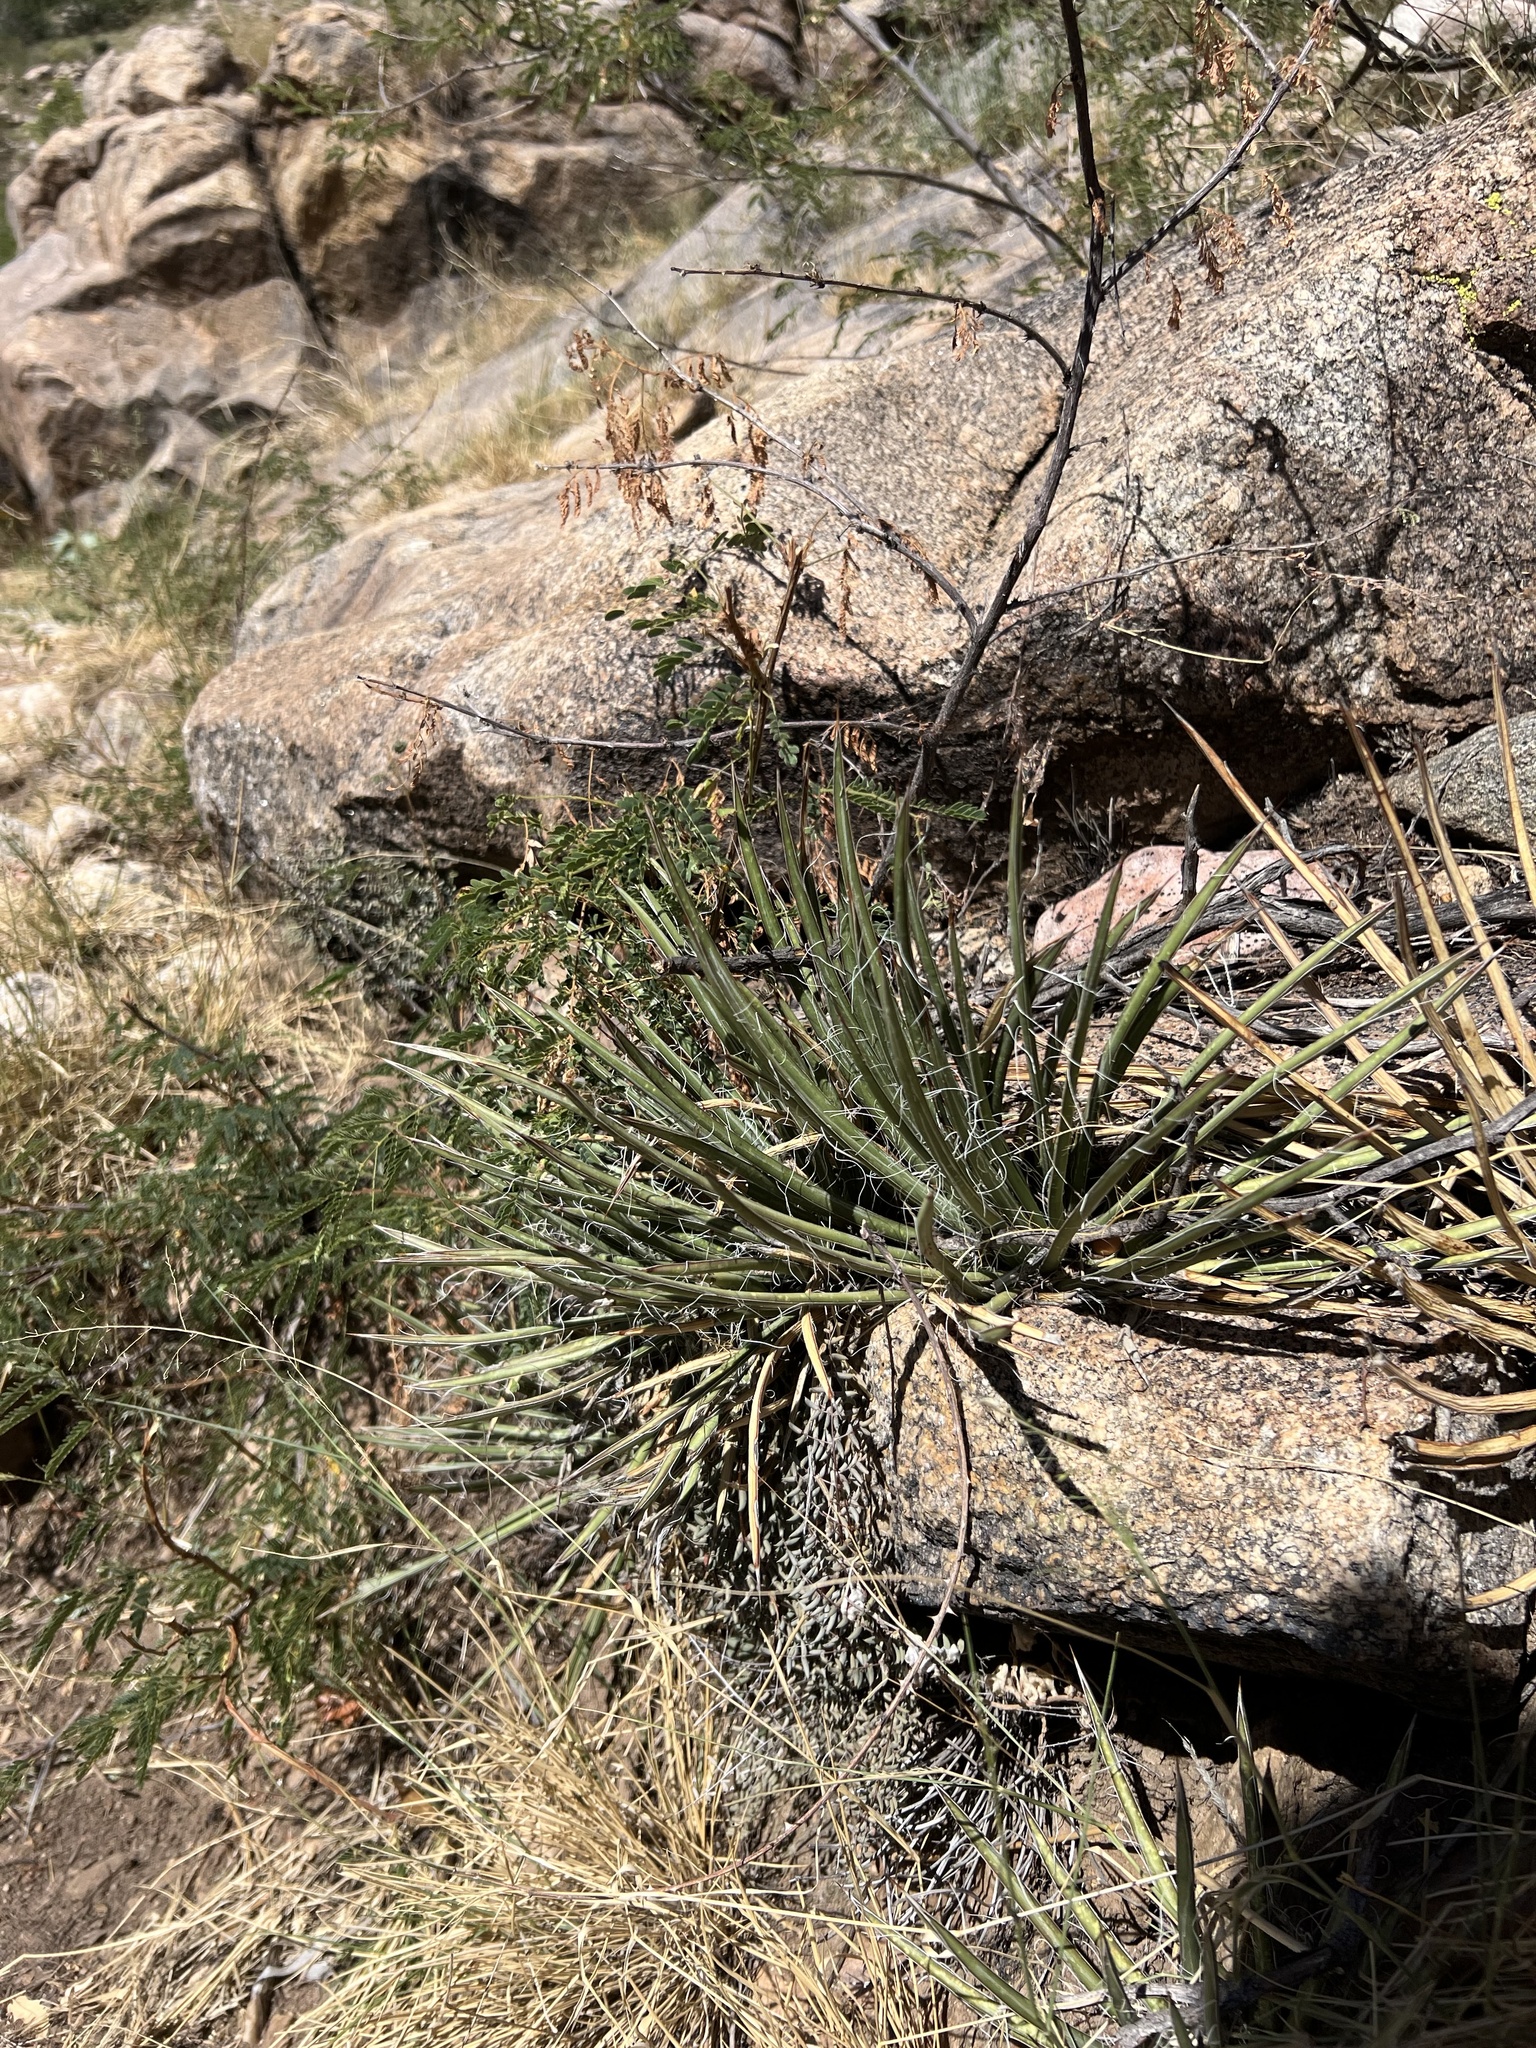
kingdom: Plantae
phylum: Tracheophyta
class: Liliopsida
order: Asparagales
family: Asparagaceae
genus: Agave
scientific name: Agave schottii
